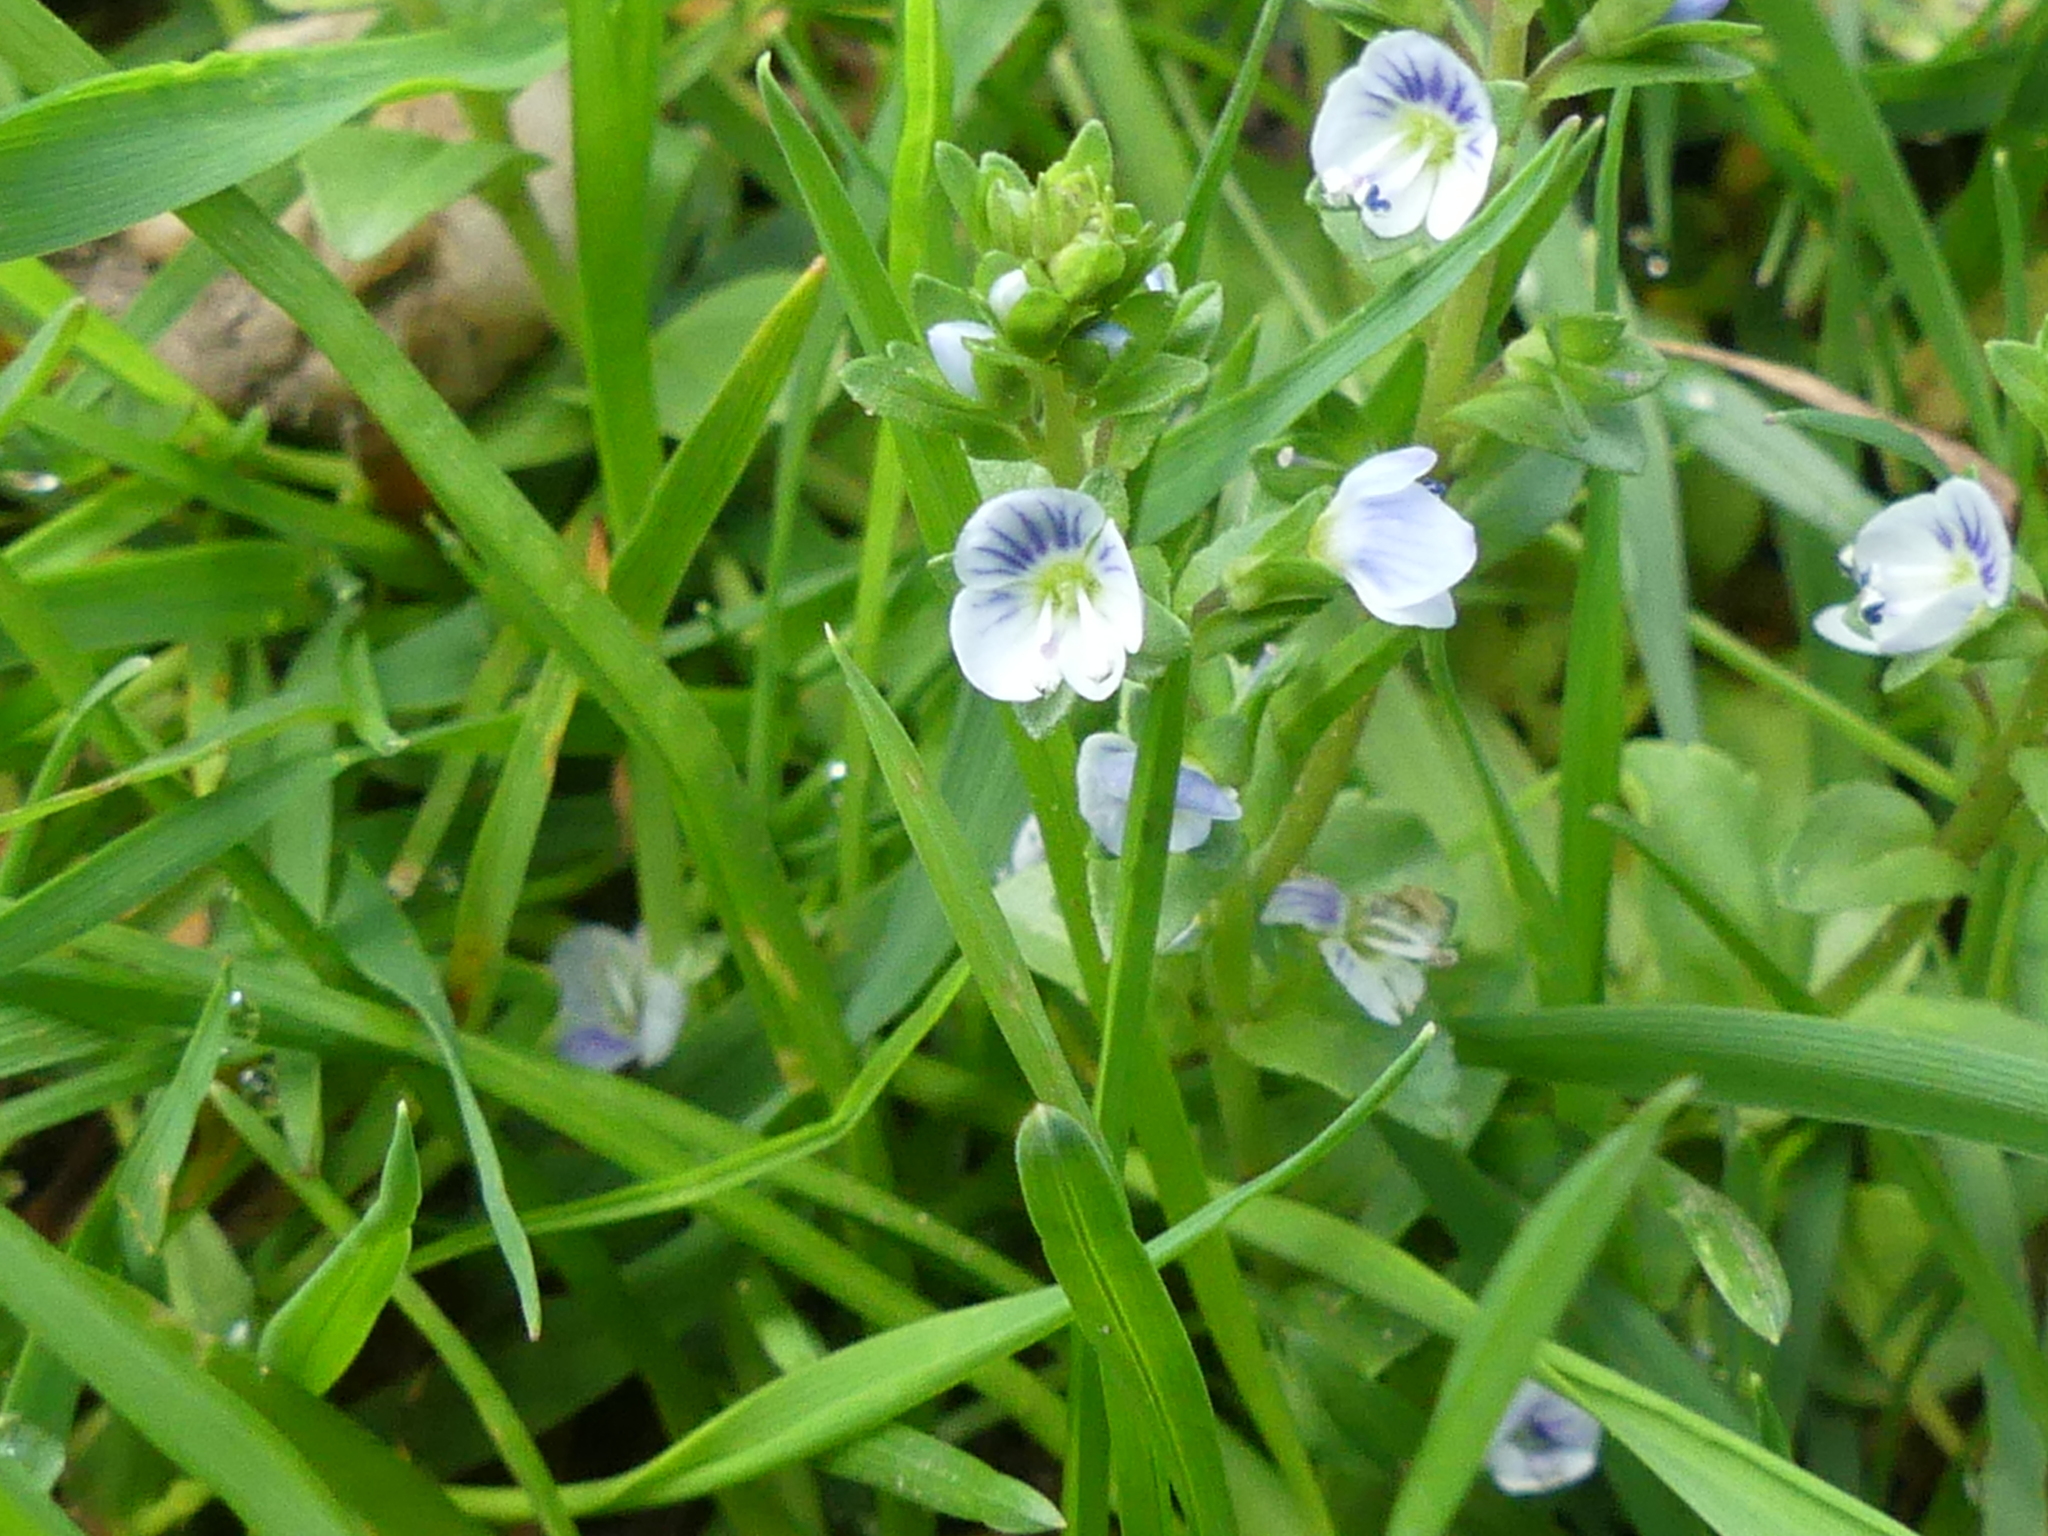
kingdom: Plantae
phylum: Tracheophyta
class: Magnoliopsida
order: Lamiales
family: Plantaginaceae
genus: Veronica
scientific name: Veronica serpyllifolia
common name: Thyme-leaved speedwell
